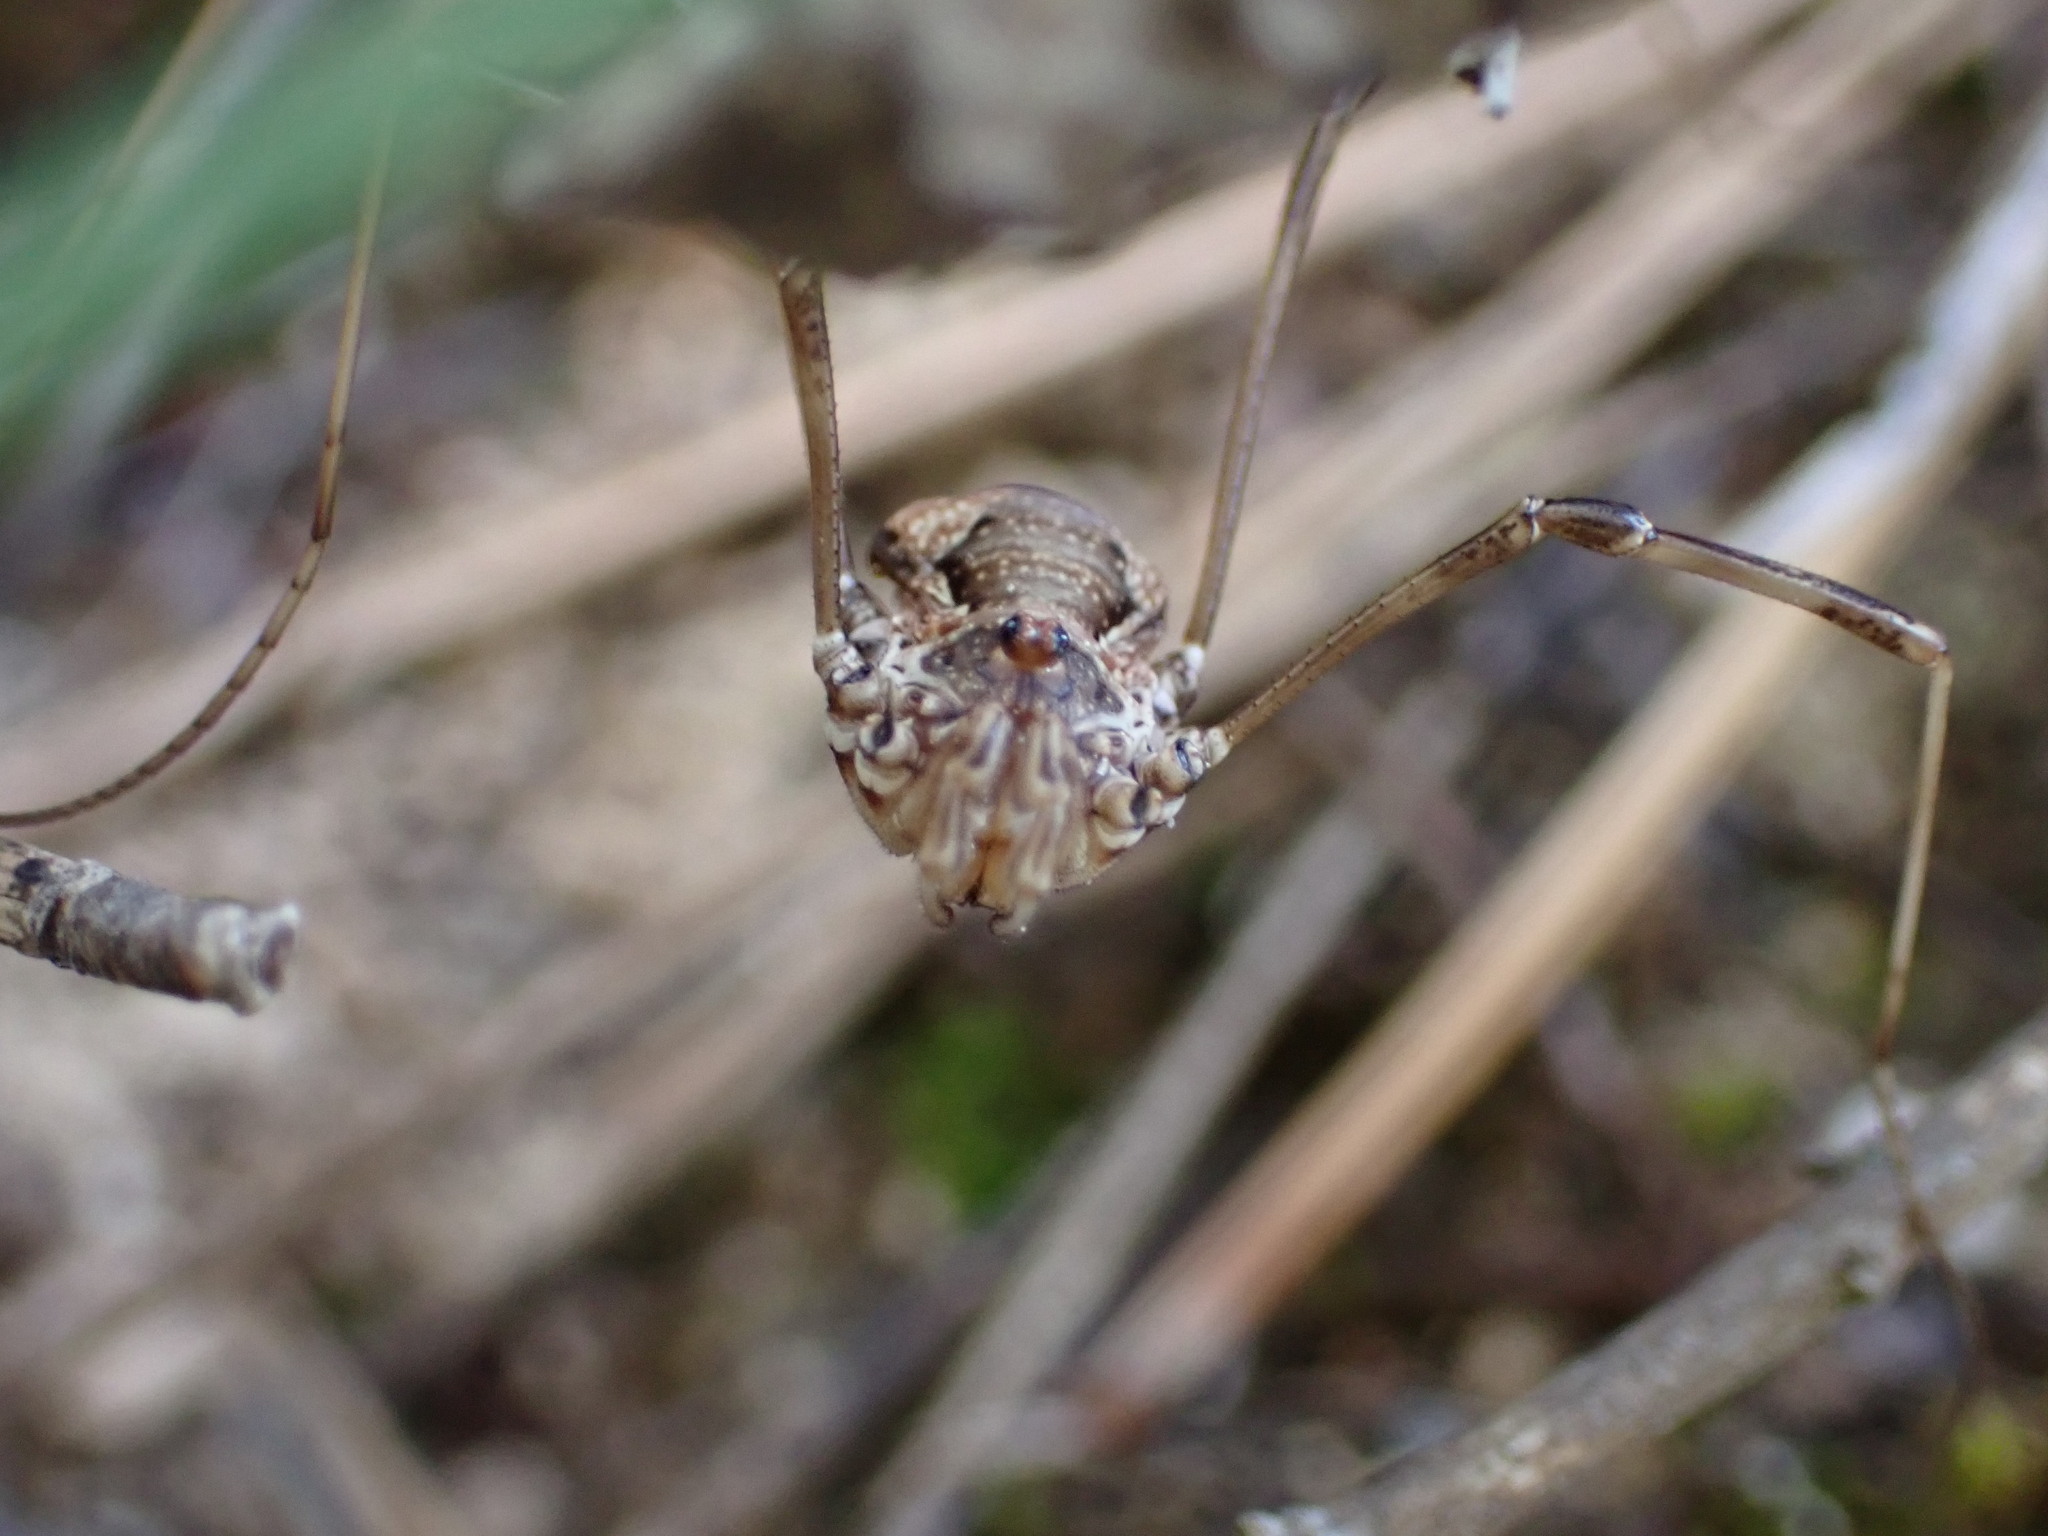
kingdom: Animalia
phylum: Arthropoda
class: Arachnida
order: Opiliones
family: Phalangiidae
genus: Dasylobus
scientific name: Dasylobus graniferus
